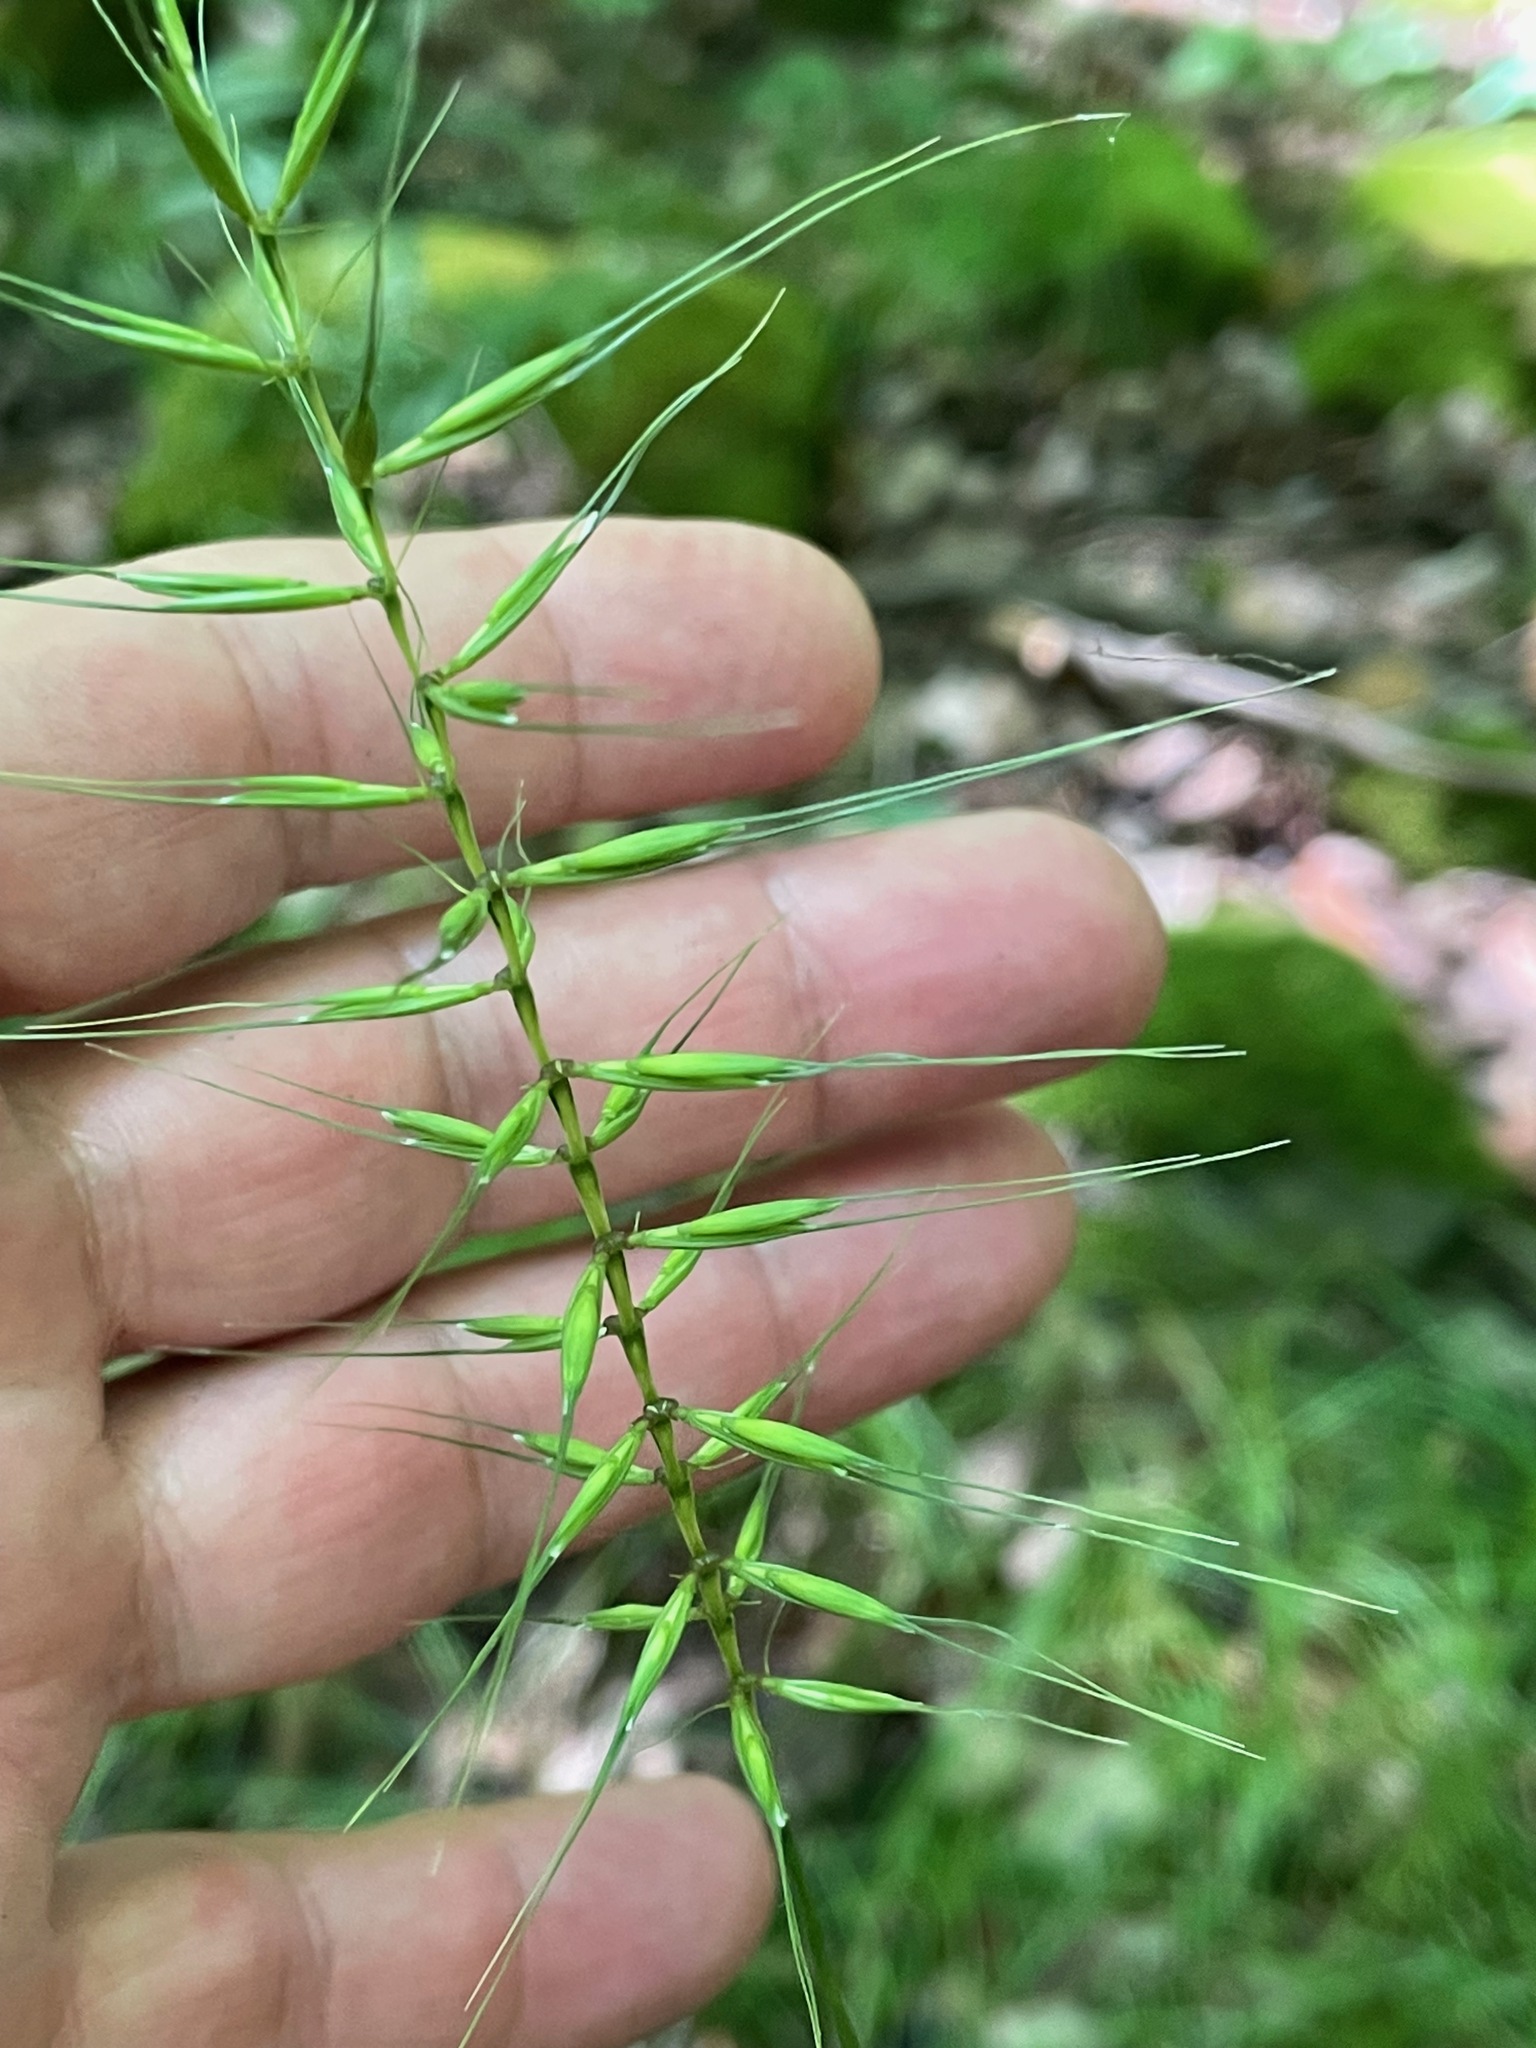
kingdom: Plantae
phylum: Tracheophyta
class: Liliopsida
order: Poales
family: Poaceae
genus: Elymus
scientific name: Elymus hystrix
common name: Bottlebrush grass
